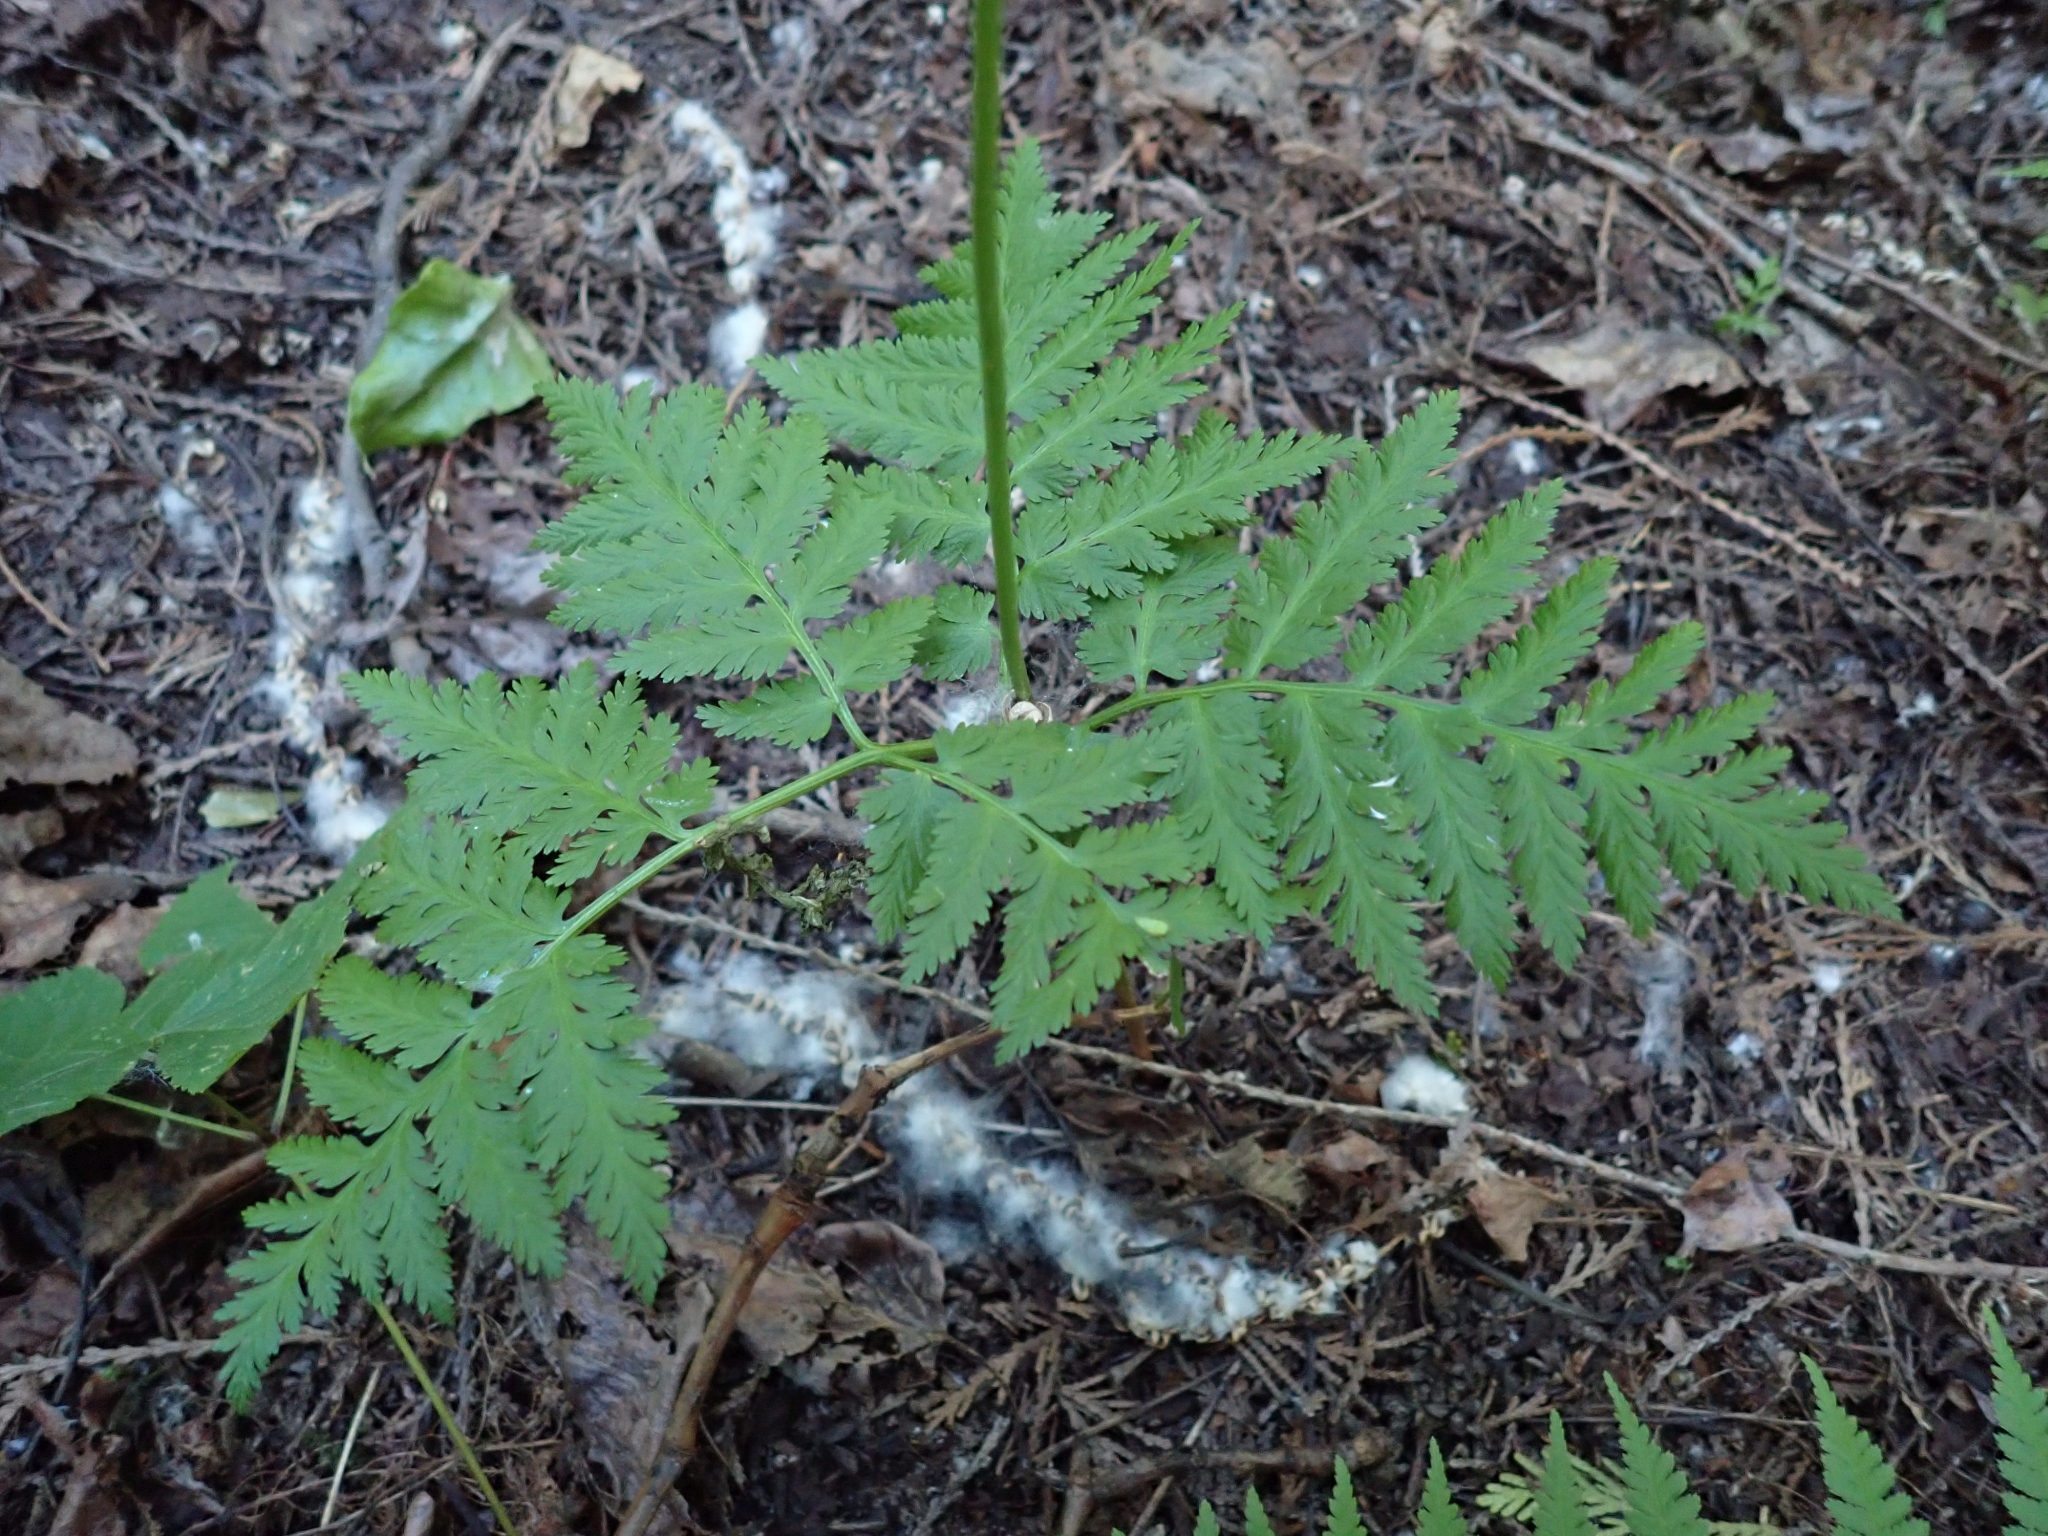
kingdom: Plantae
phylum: Tracheophyta
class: Polypodiopsida
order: Ophioglossales
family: Ophioglossaceae
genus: Botrypus
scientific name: Botrypus virginianus
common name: Common grapefern
